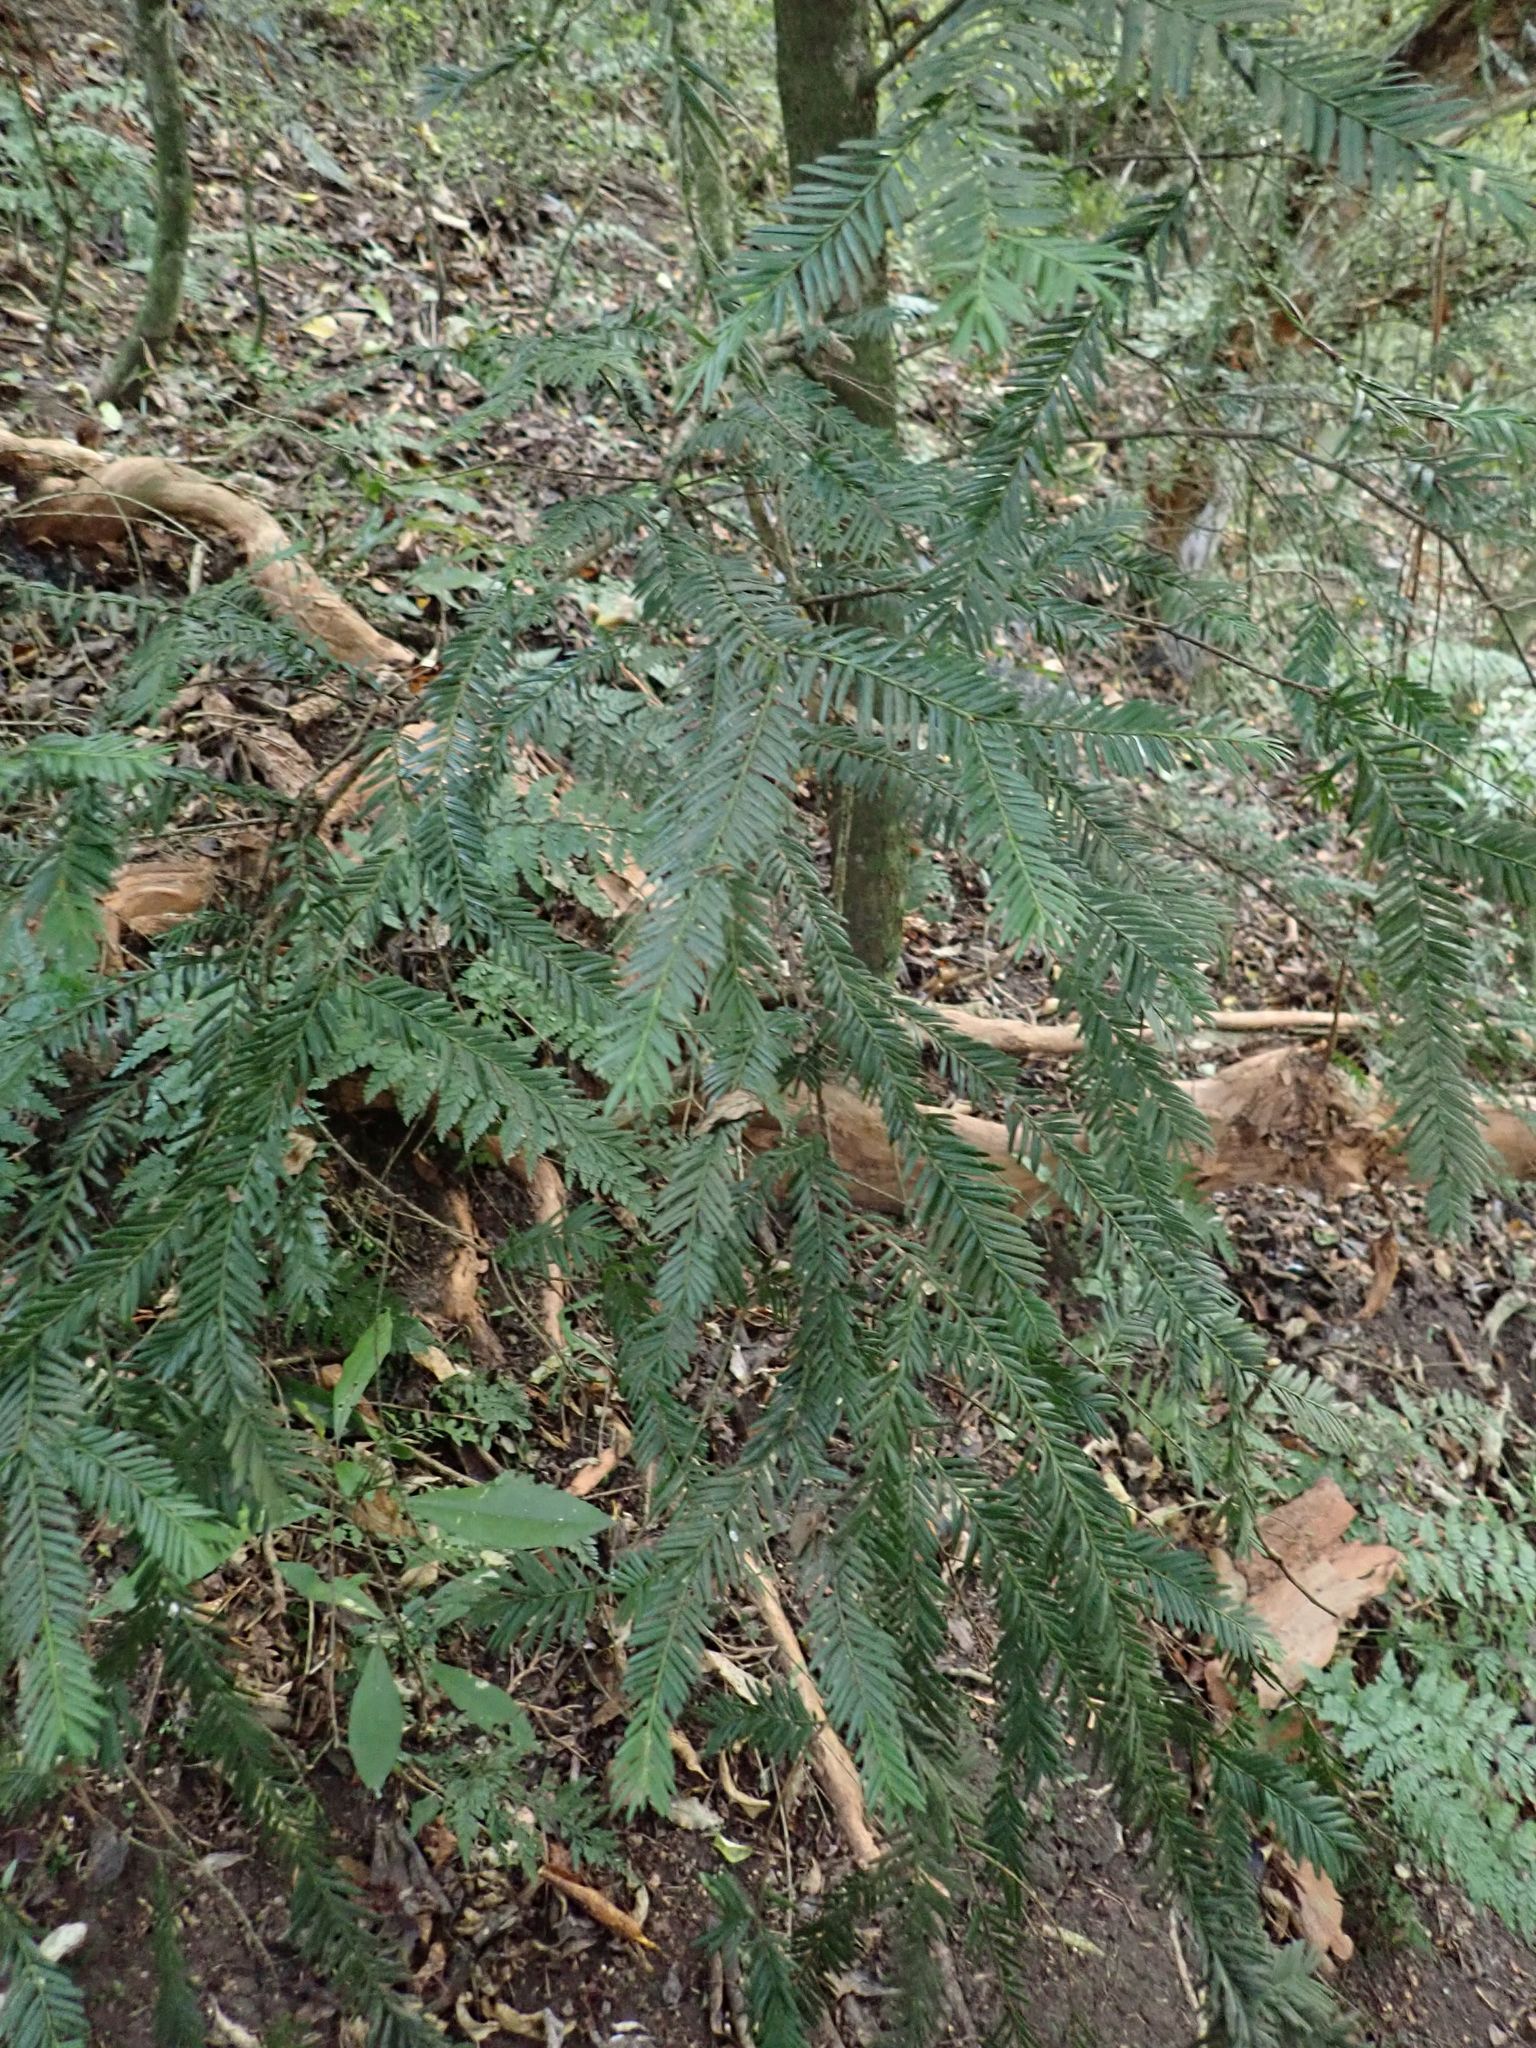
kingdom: Plantae
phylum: Tracheophyta
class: Pinopsida
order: Pinales
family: Taxaceae
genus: Taxus
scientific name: Taxus baccata
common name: Yew
